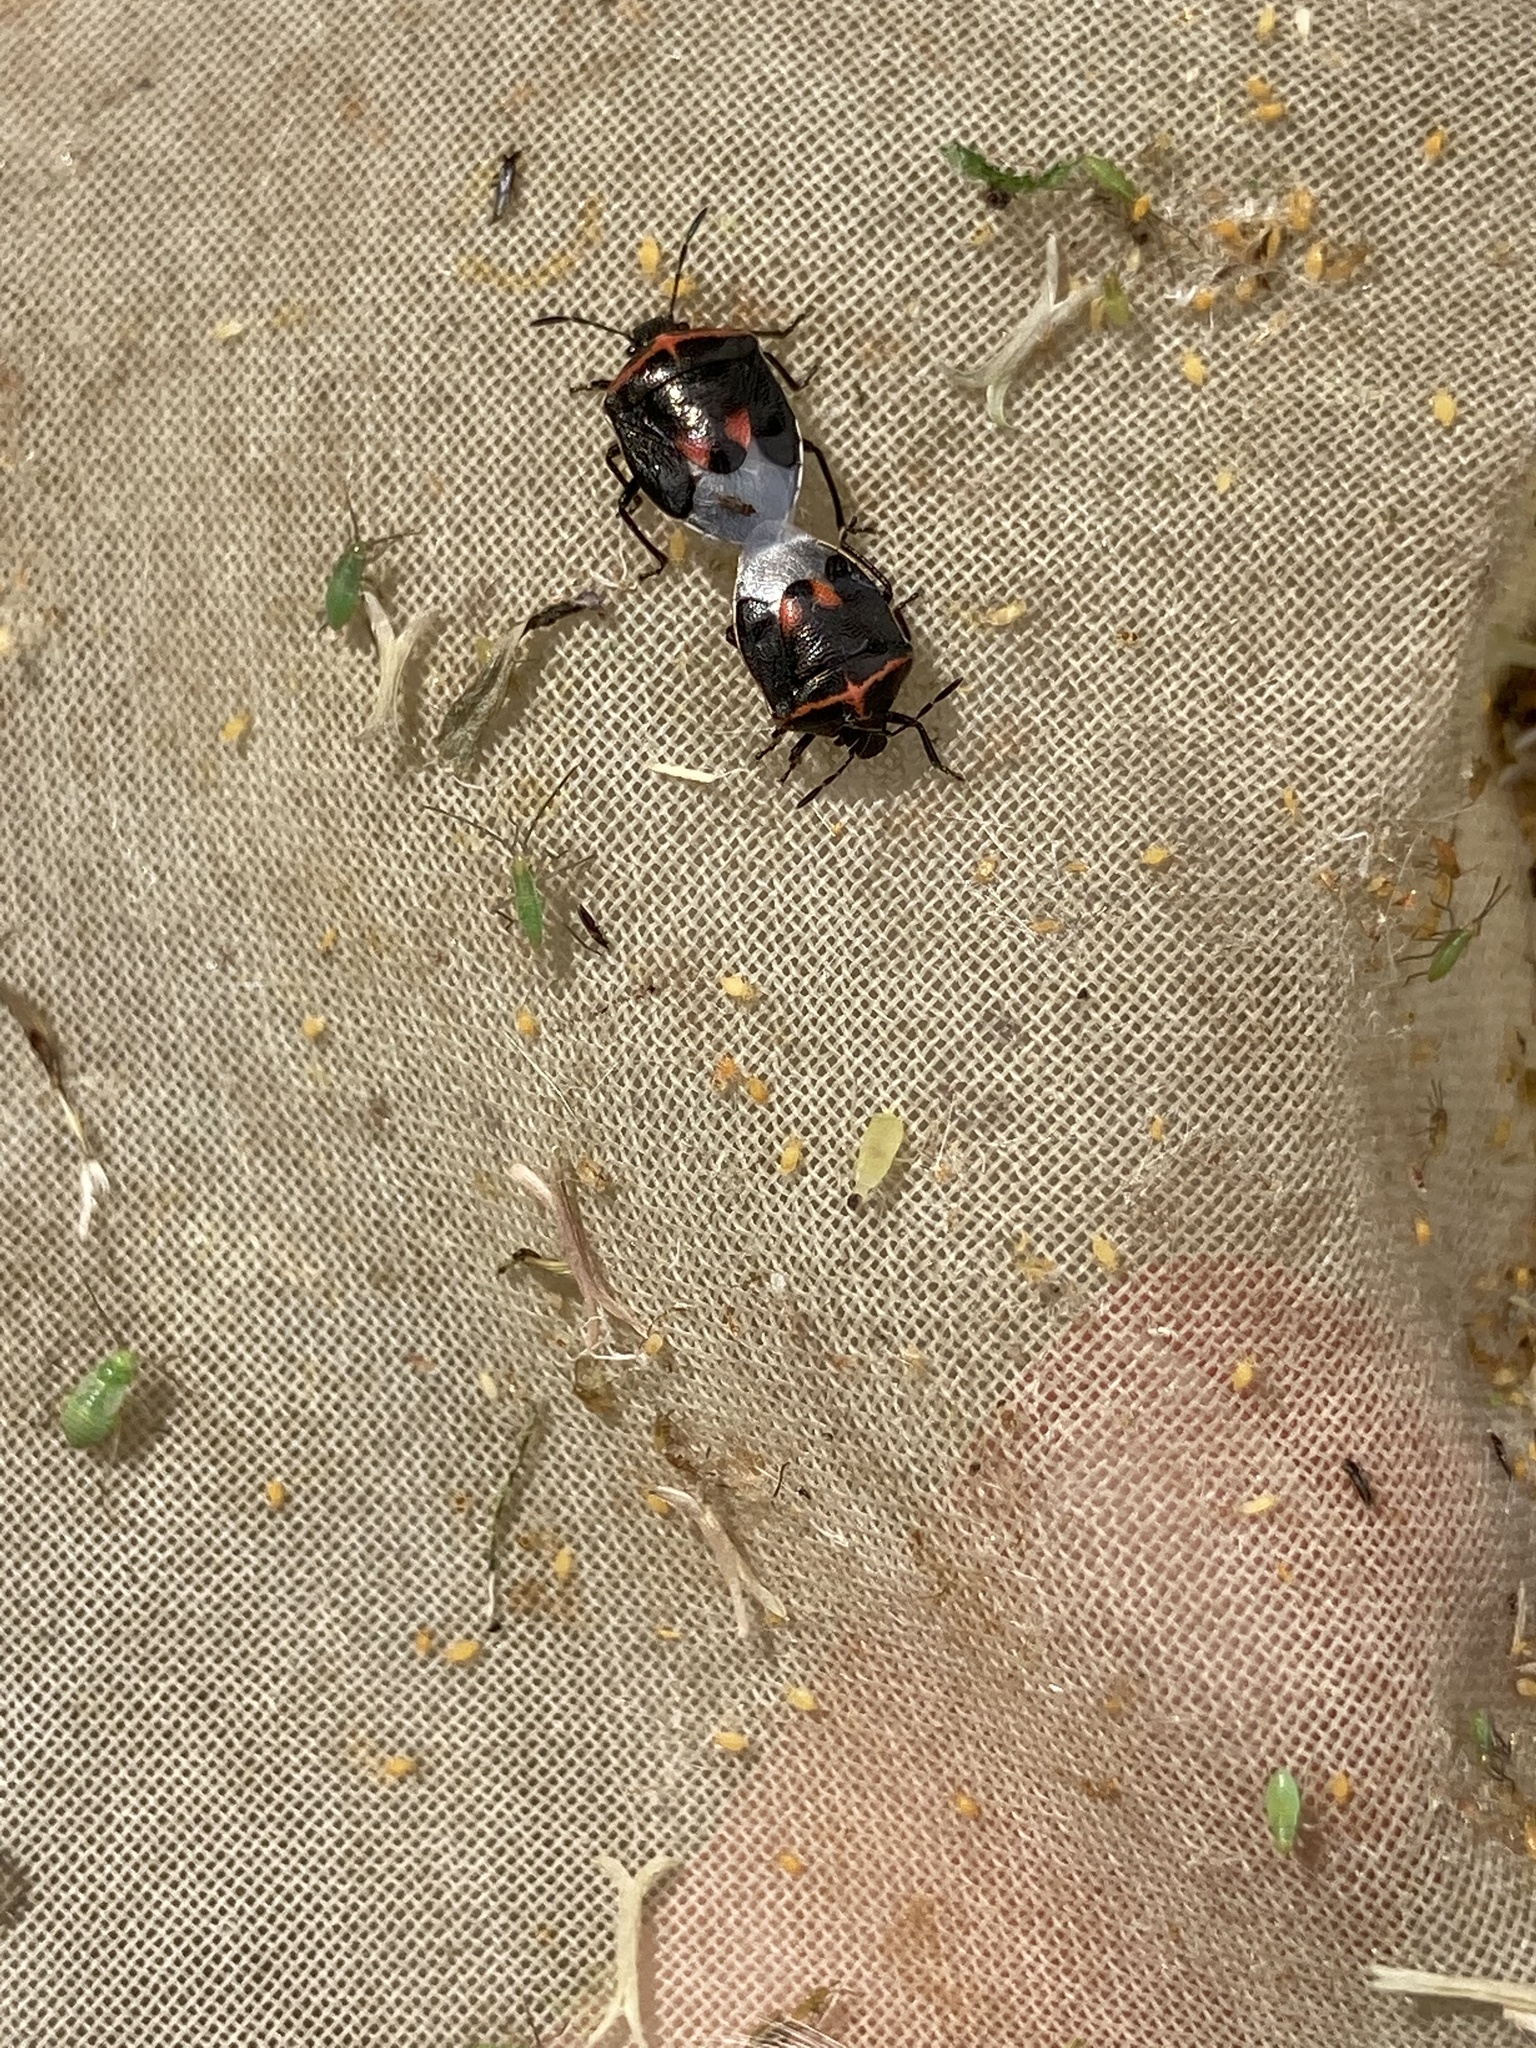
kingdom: Animalia
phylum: Arthropoda
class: Insecta
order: Hemiptera
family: Pentatomidae
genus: Cosmopepla
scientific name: Cosmopepla lintneriana
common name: Twice-stabbed stink bug
